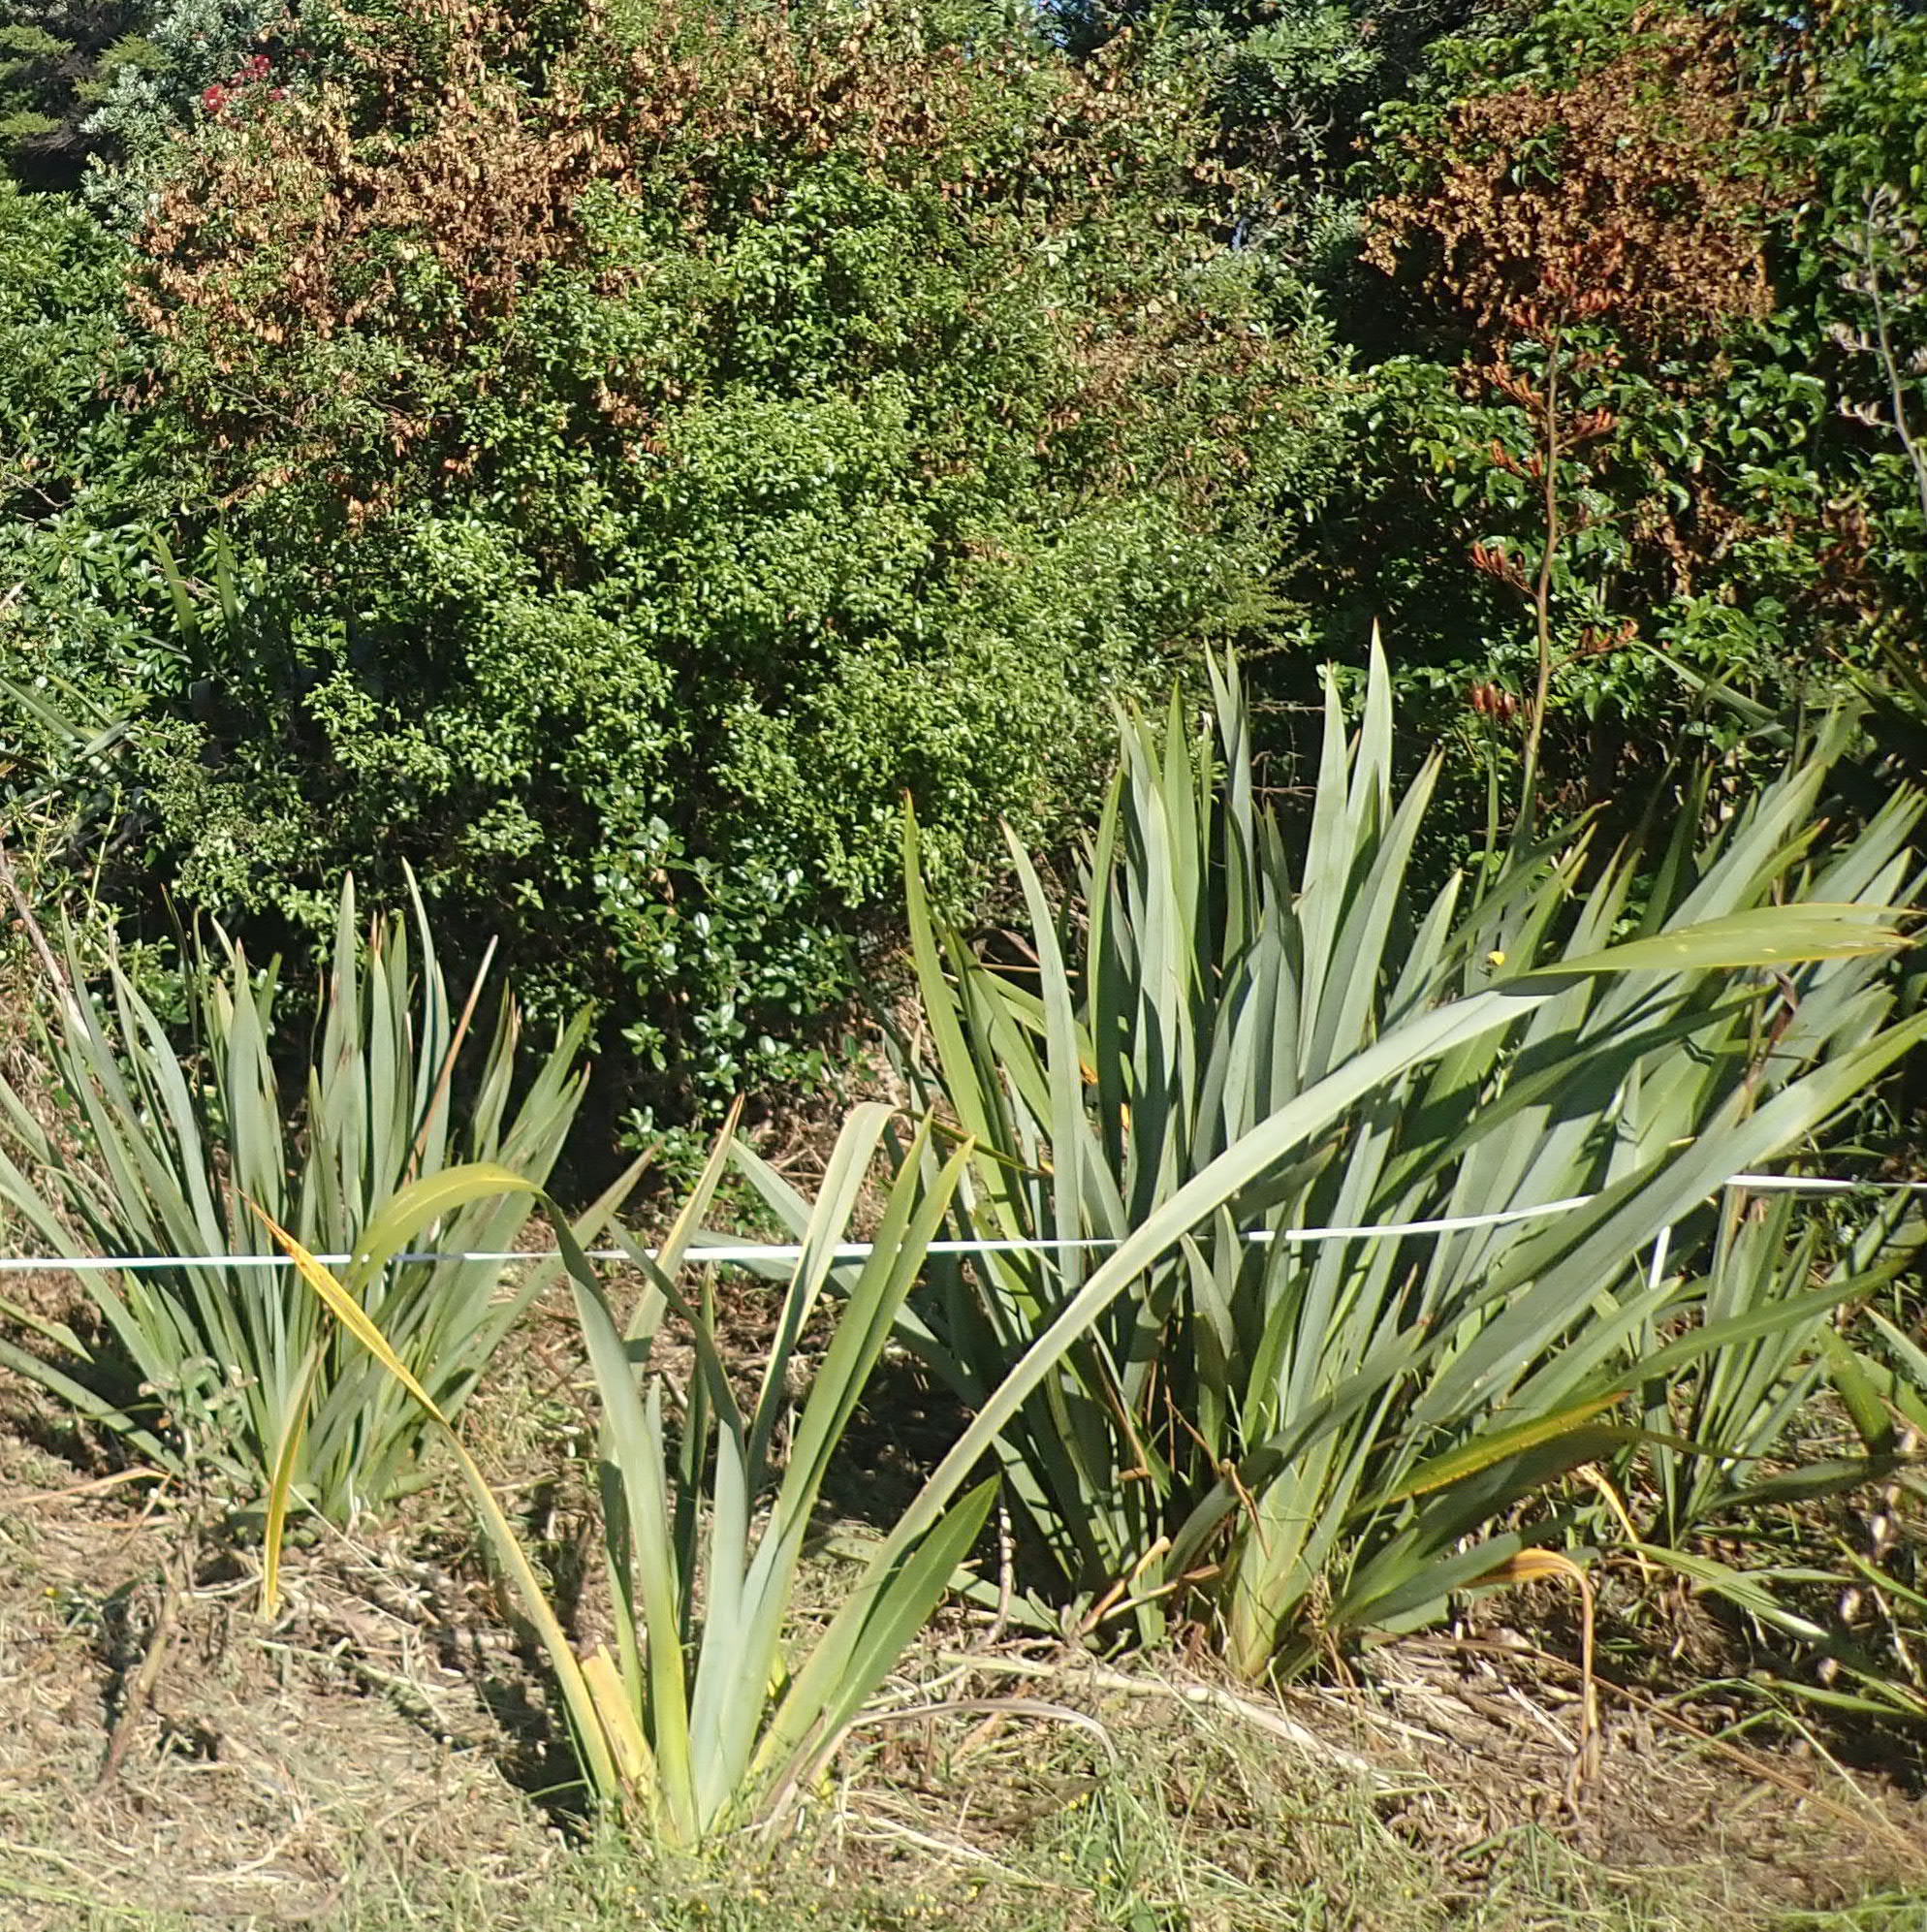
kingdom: Plantae
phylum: Tracheophyta
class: Magnoliopsida
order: Apiales
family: Pittosporaceae
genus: Pittosporum
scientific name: Pittosporum tenuifolium
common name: Kohuhu
